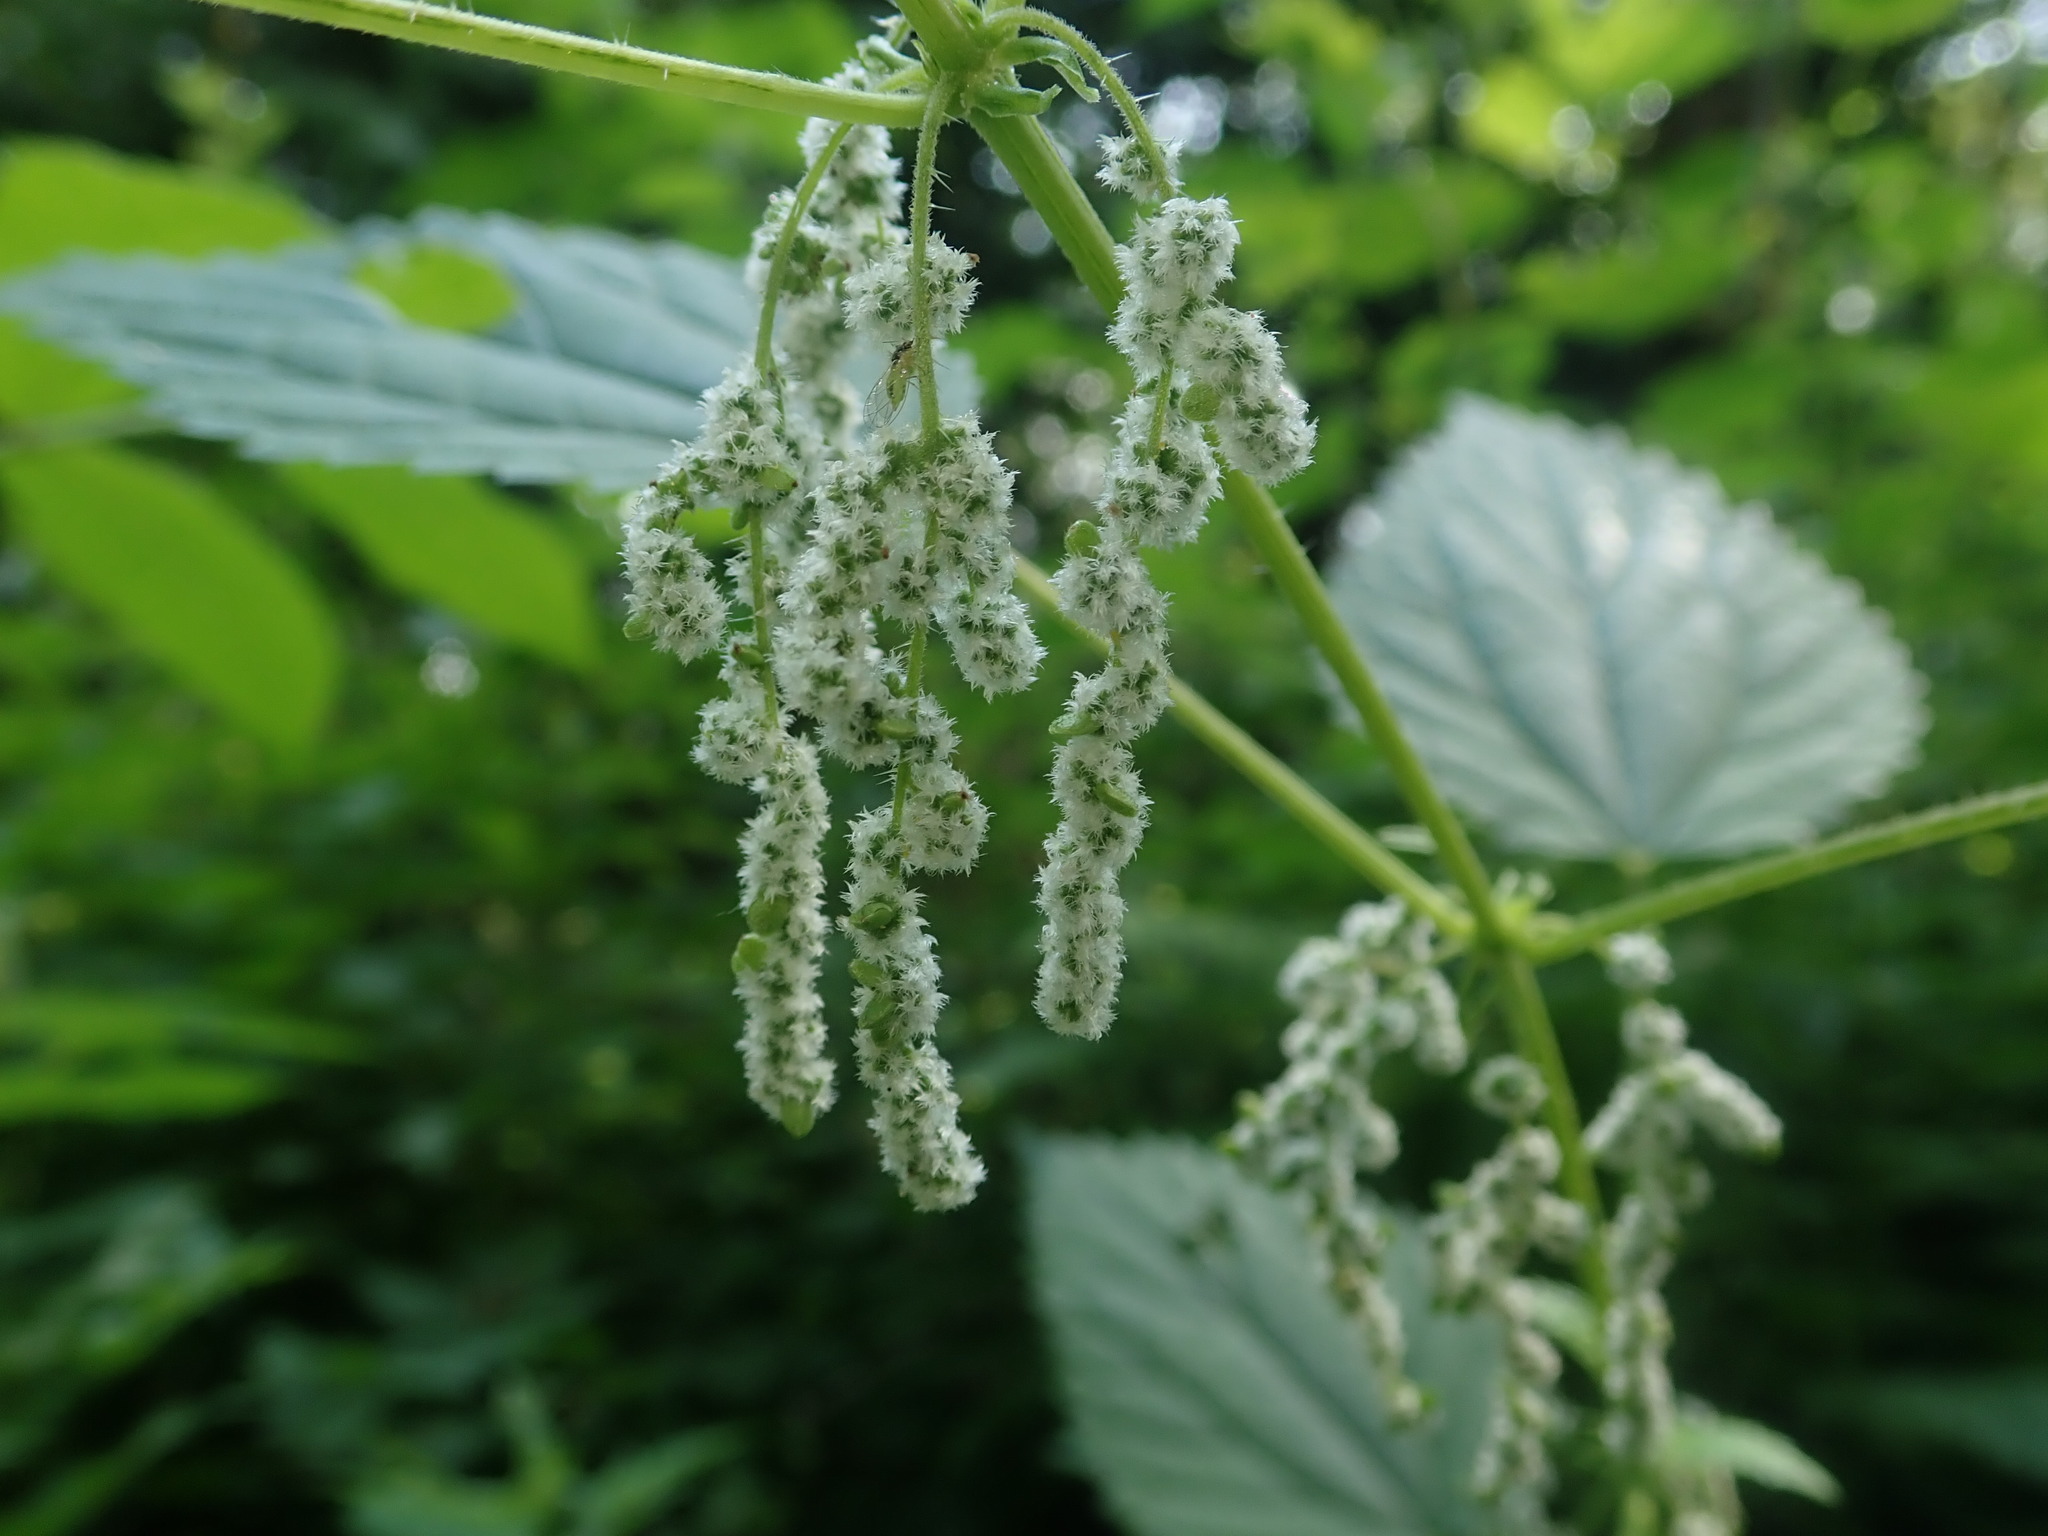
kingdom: Plantae
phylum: Tracheophyta
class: Magnoliopsida
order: Rosales
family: Urticaceae
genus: Urtica
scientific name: Urtica dioica
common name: Common nettle
